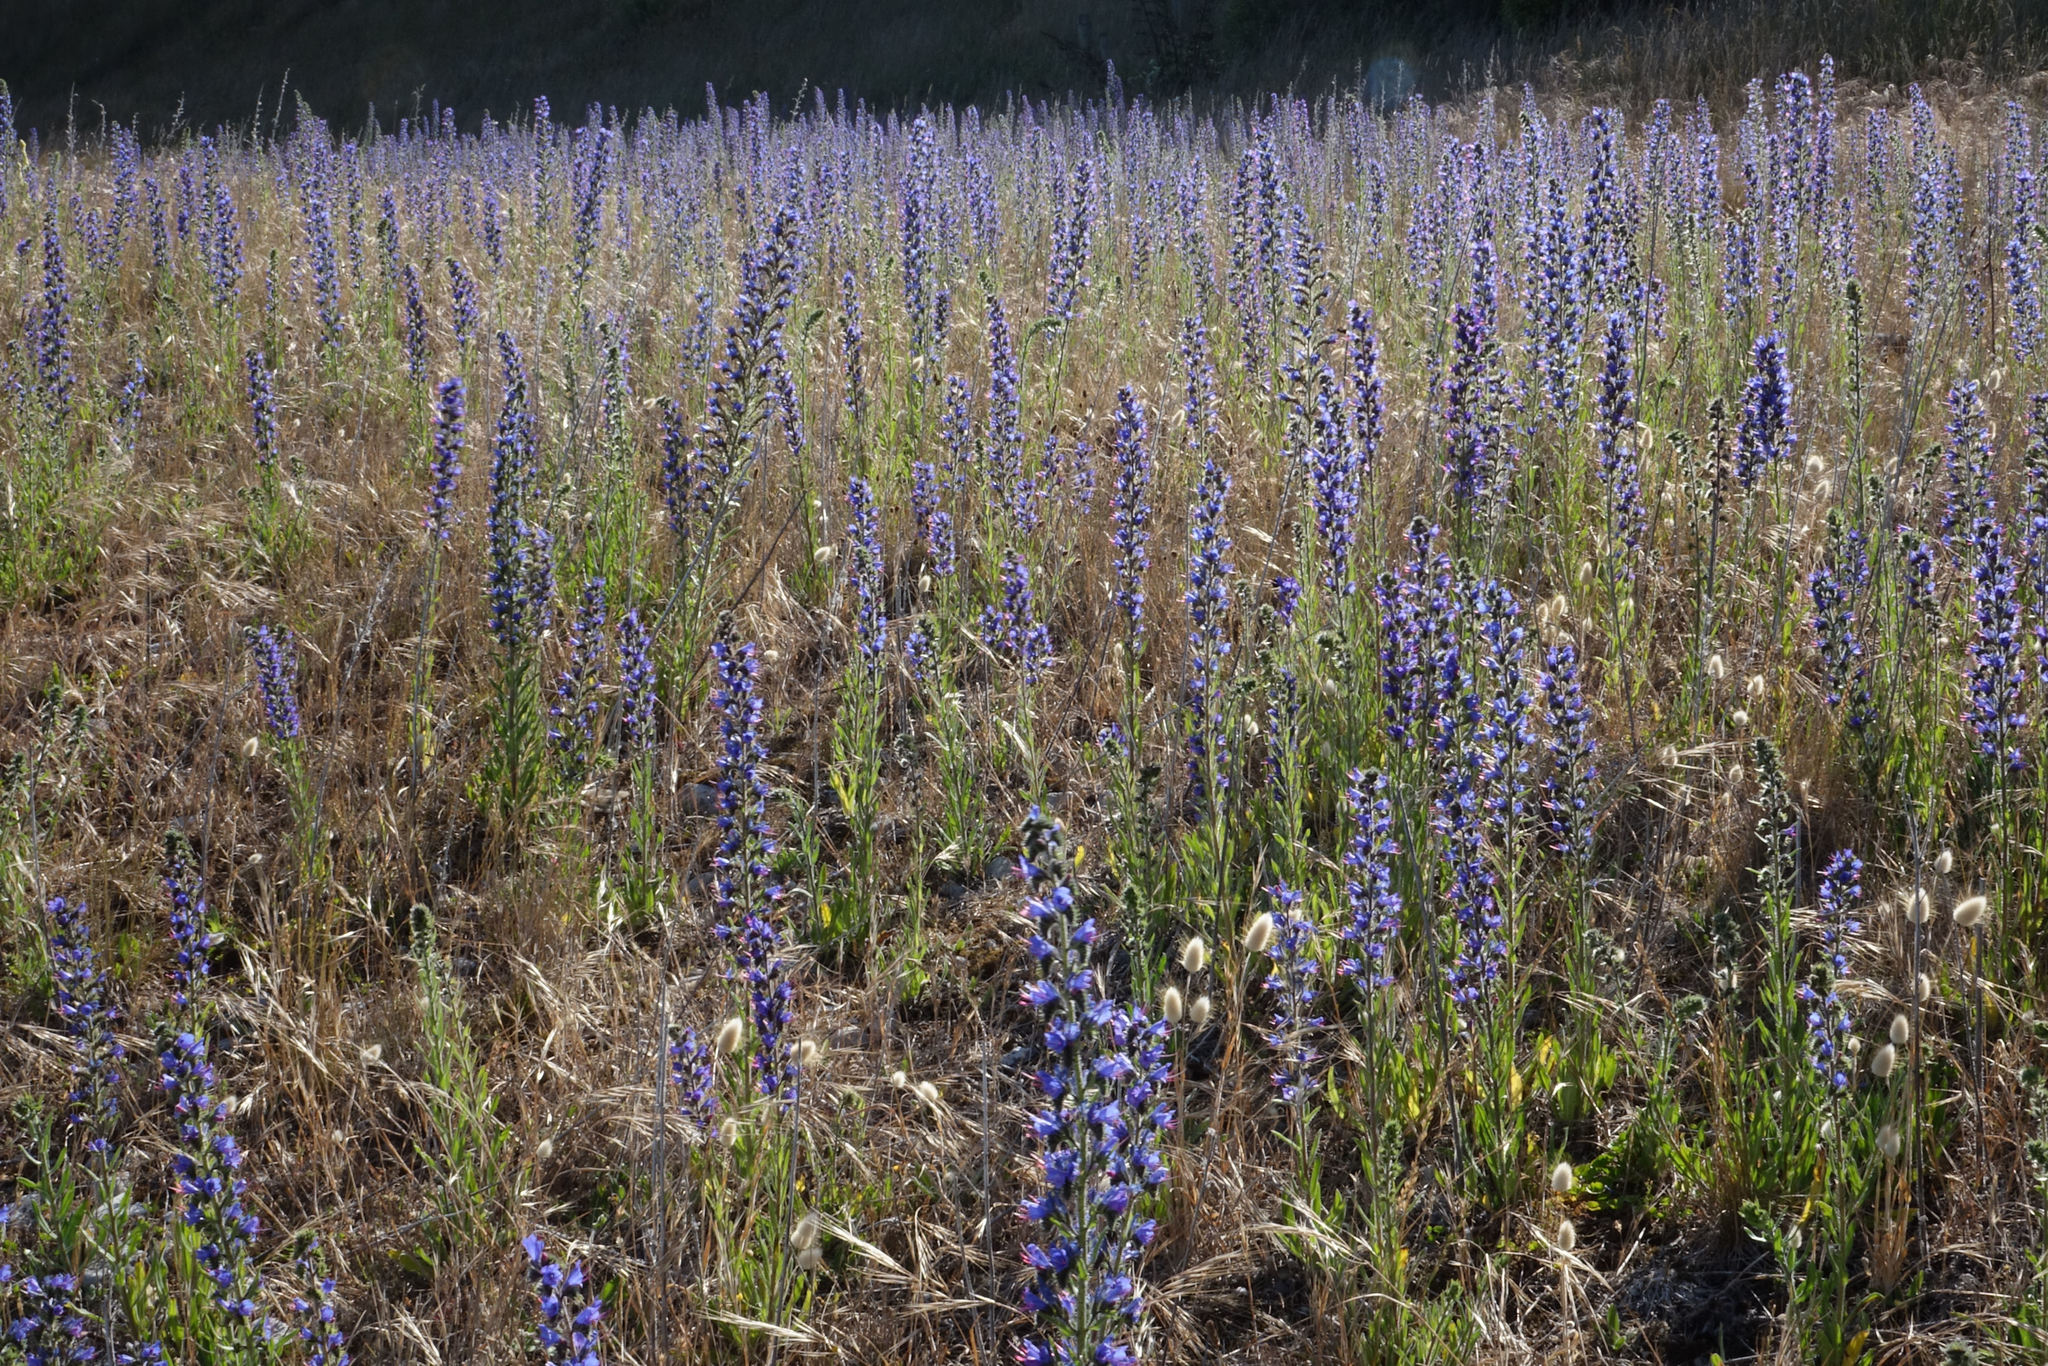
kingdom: Plantae
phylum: Tracheophyta
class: Magnoliopsida
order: Boraginales
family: Boraginaceae
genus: Echium
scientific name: Echium vulgare
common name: Common viper's bugloss
